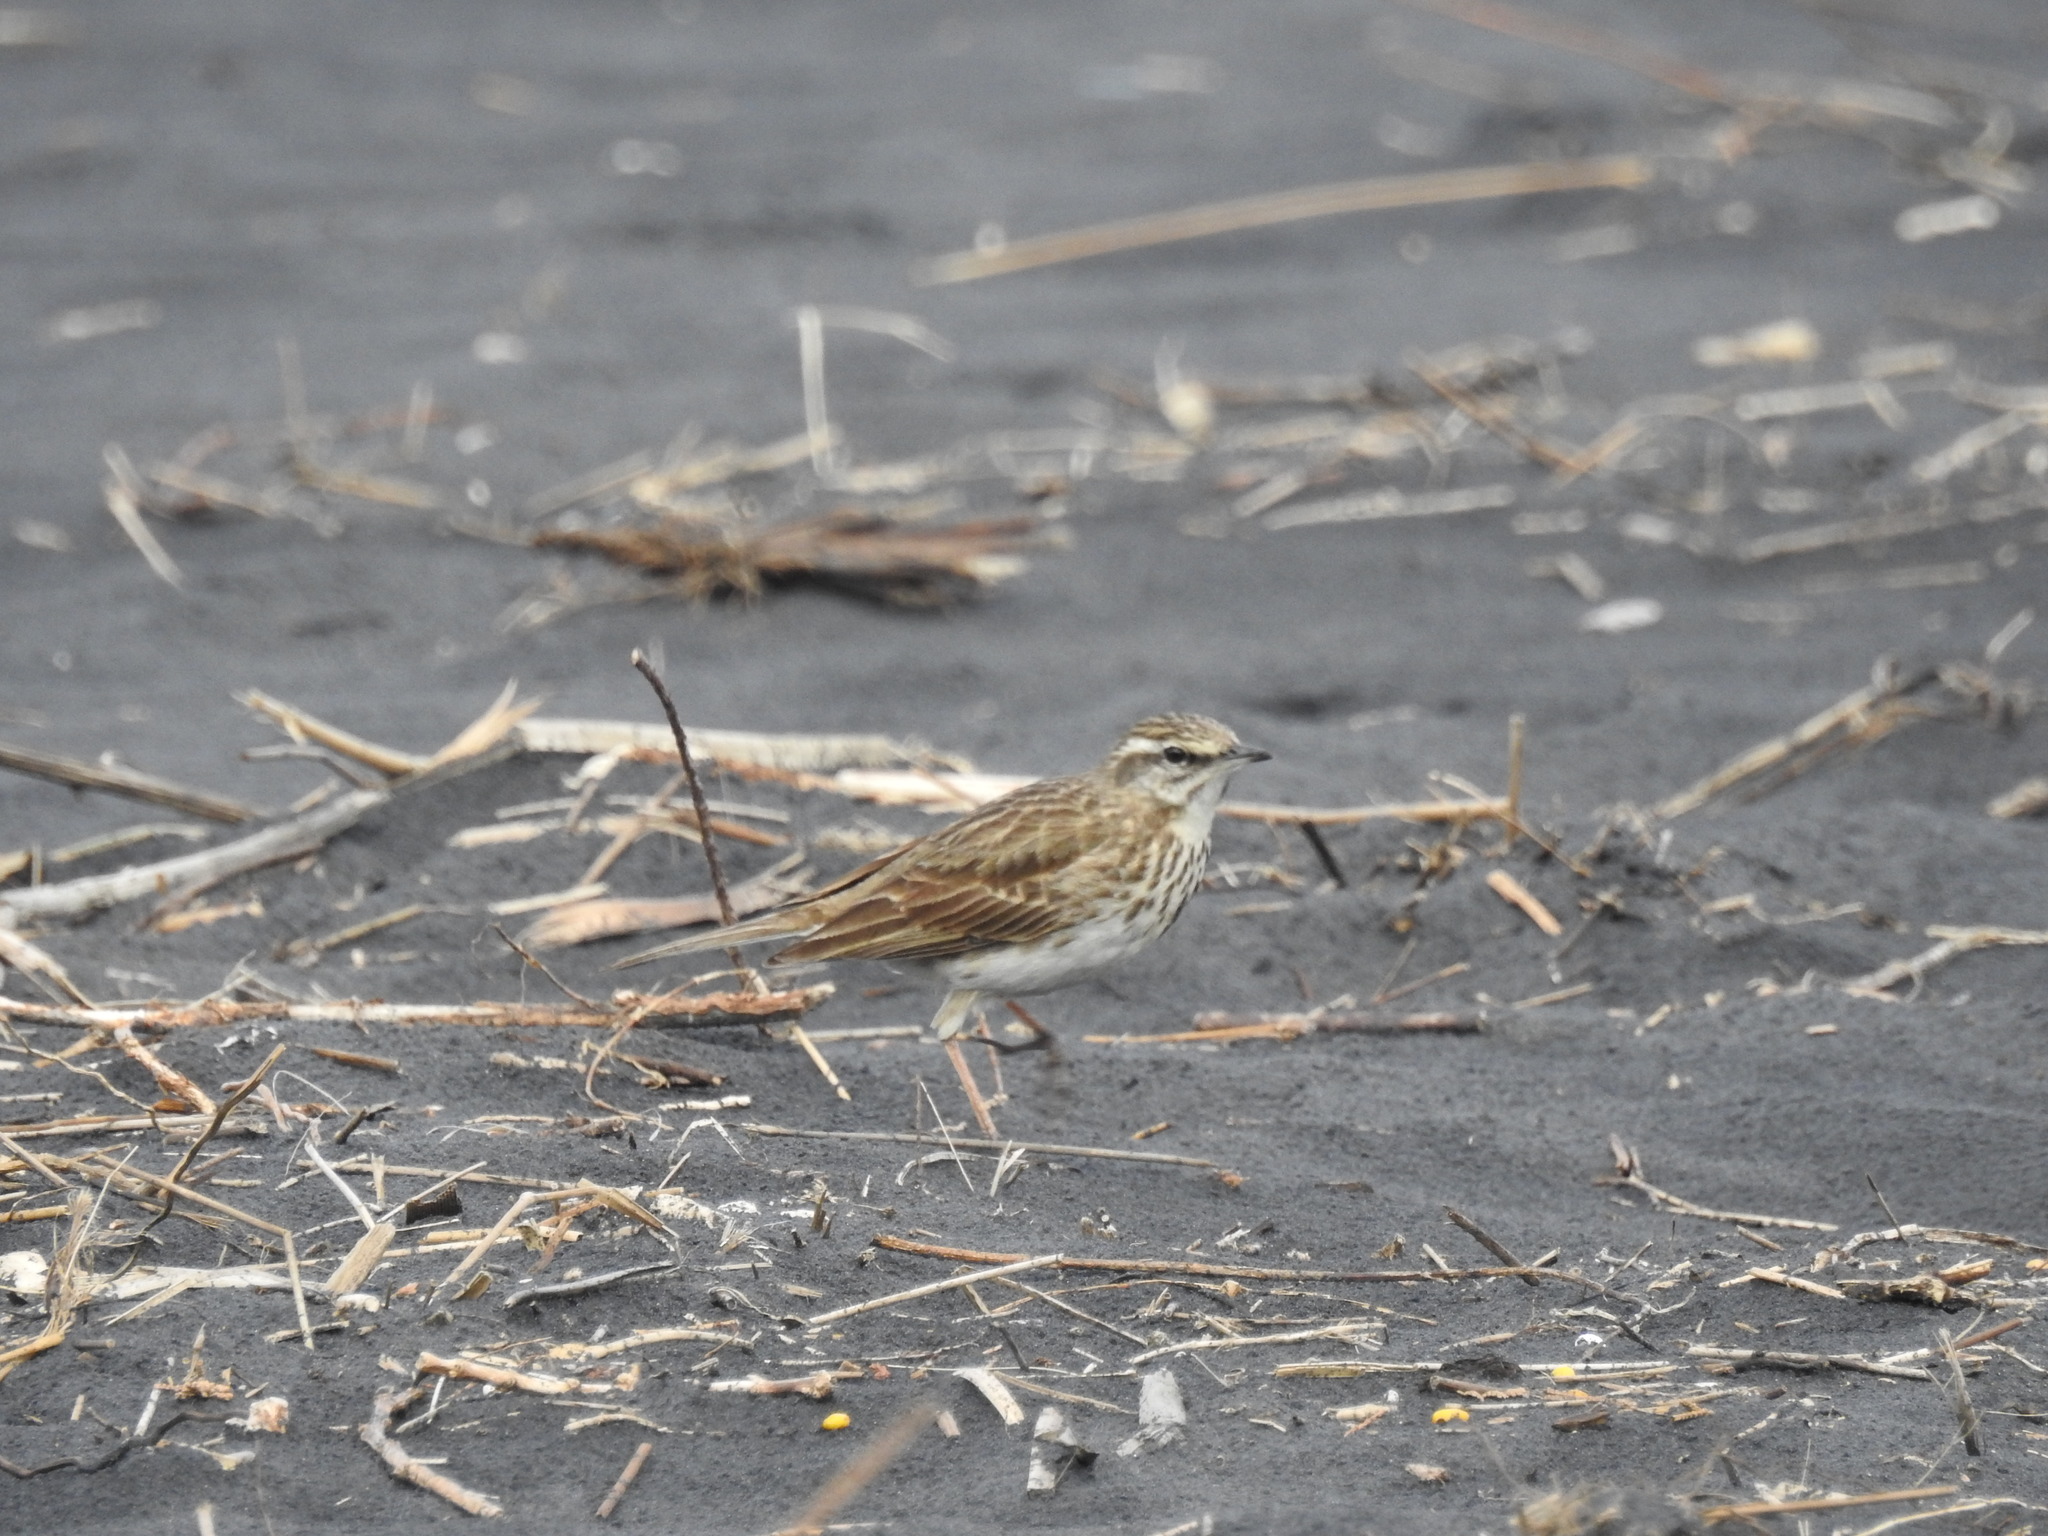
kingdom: Animalia
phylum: Chordata
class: Aves
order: Passeriformes
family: Motacillidae
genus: Anthus
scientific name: Anthus novaeseelandiae
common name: New zealand pipit
